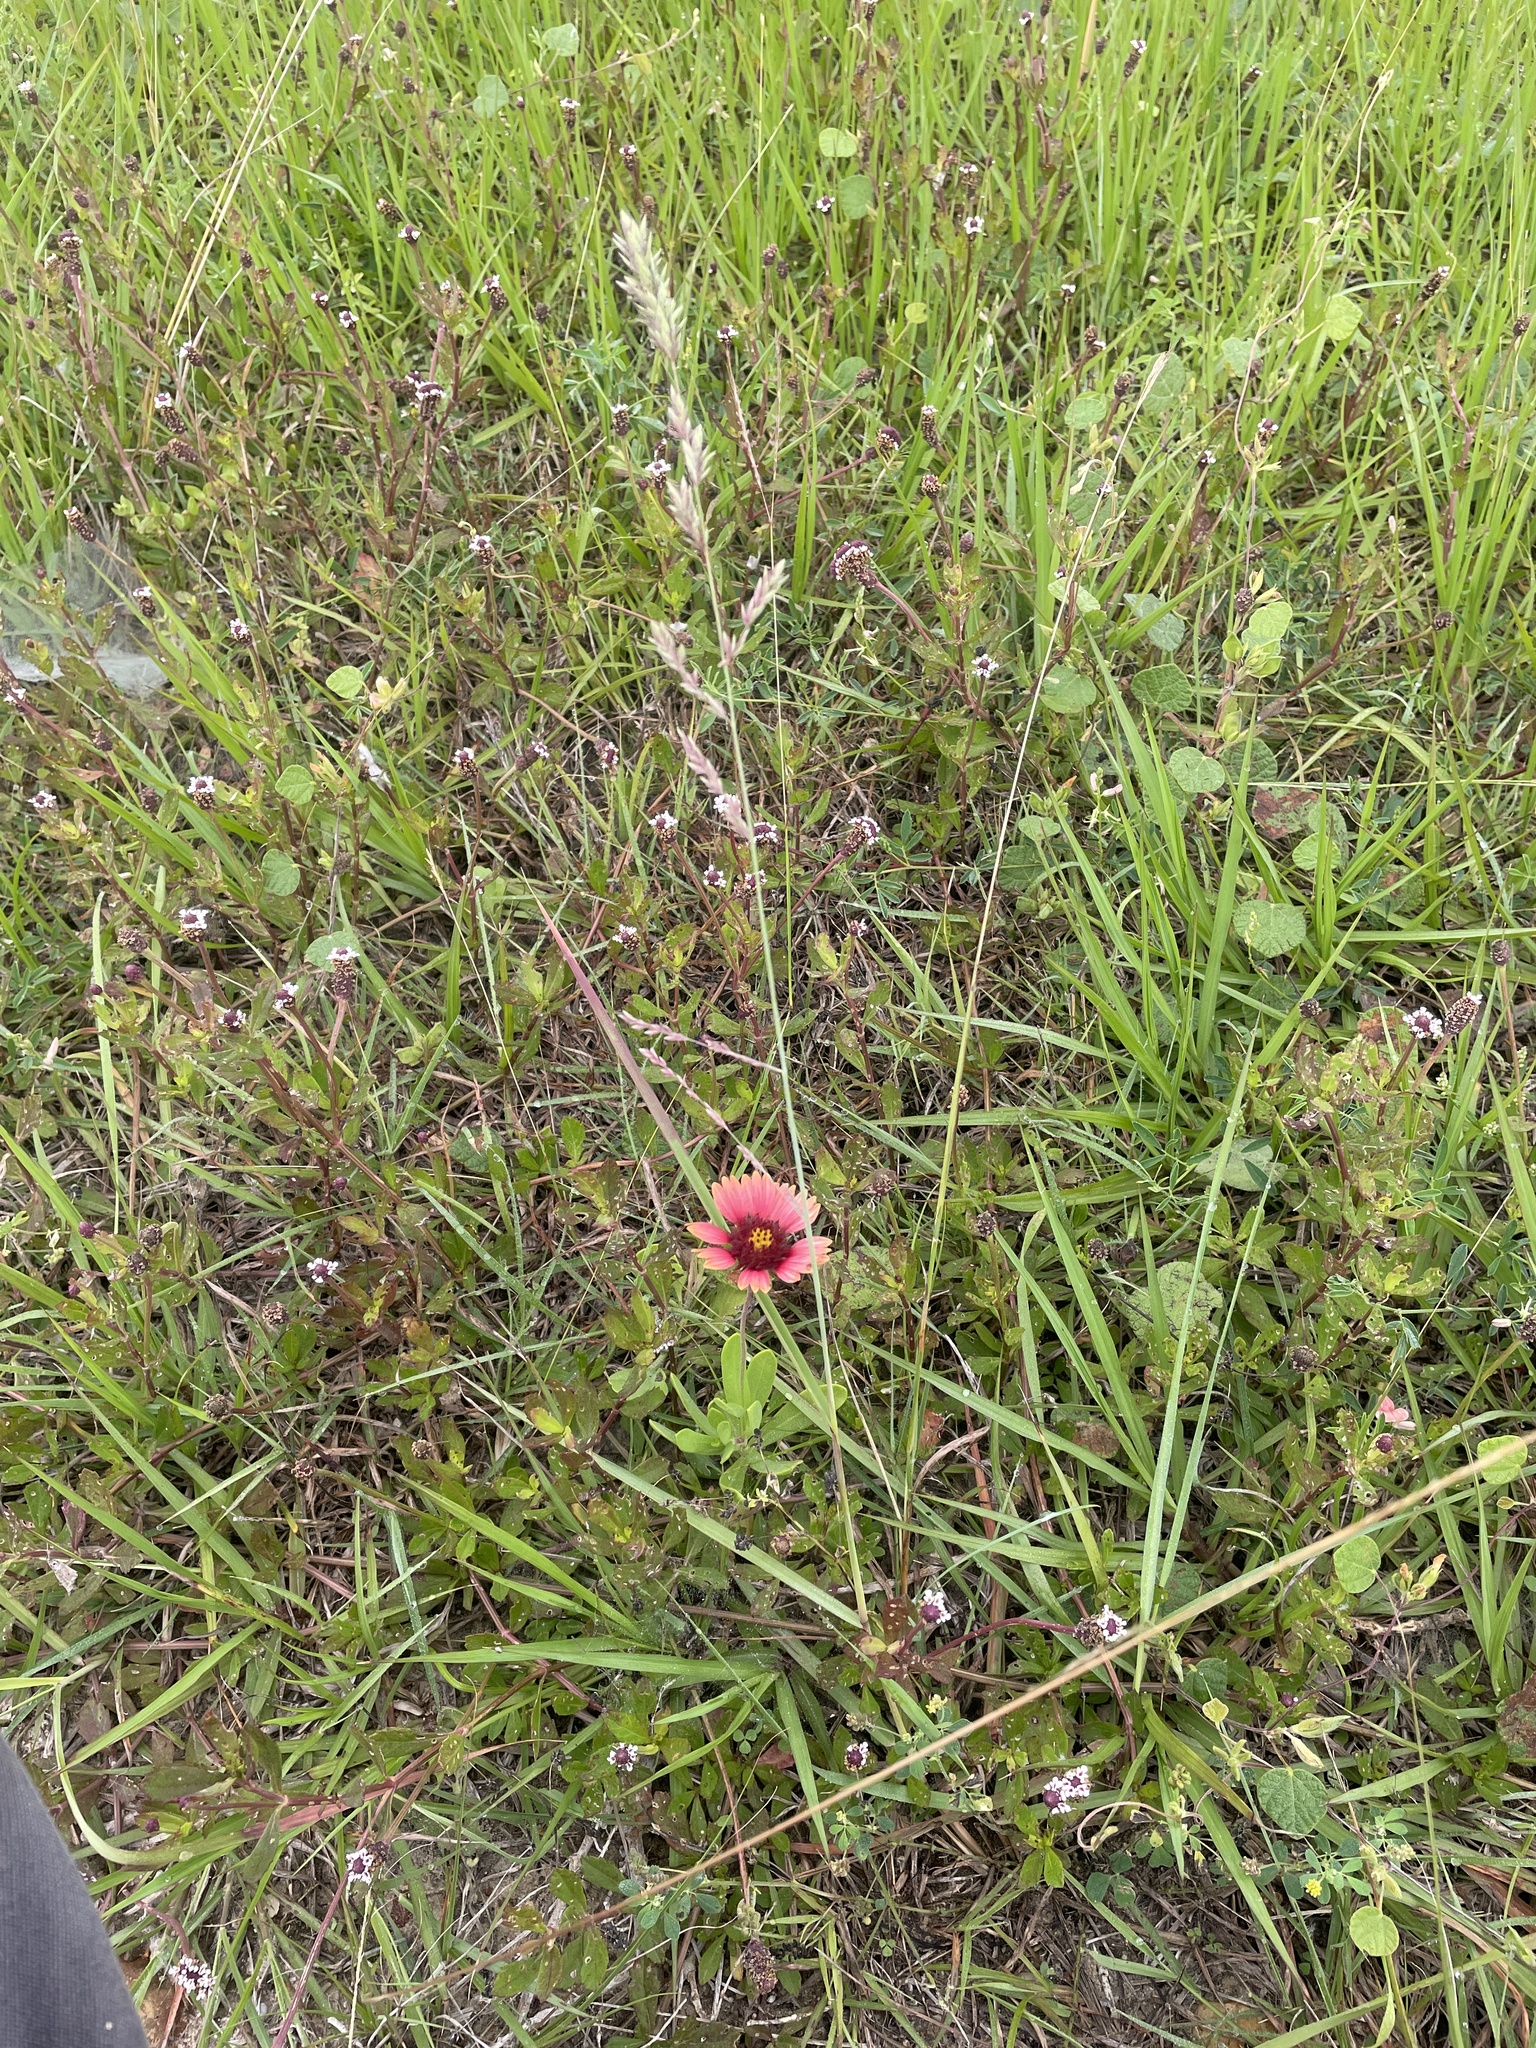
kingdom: Plantae
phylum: Tracheophyta
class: Liliopsida
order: Poales
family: Poaceae
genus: Eragrostis
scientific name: Eragrostis secundiflora
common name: Red love grass
